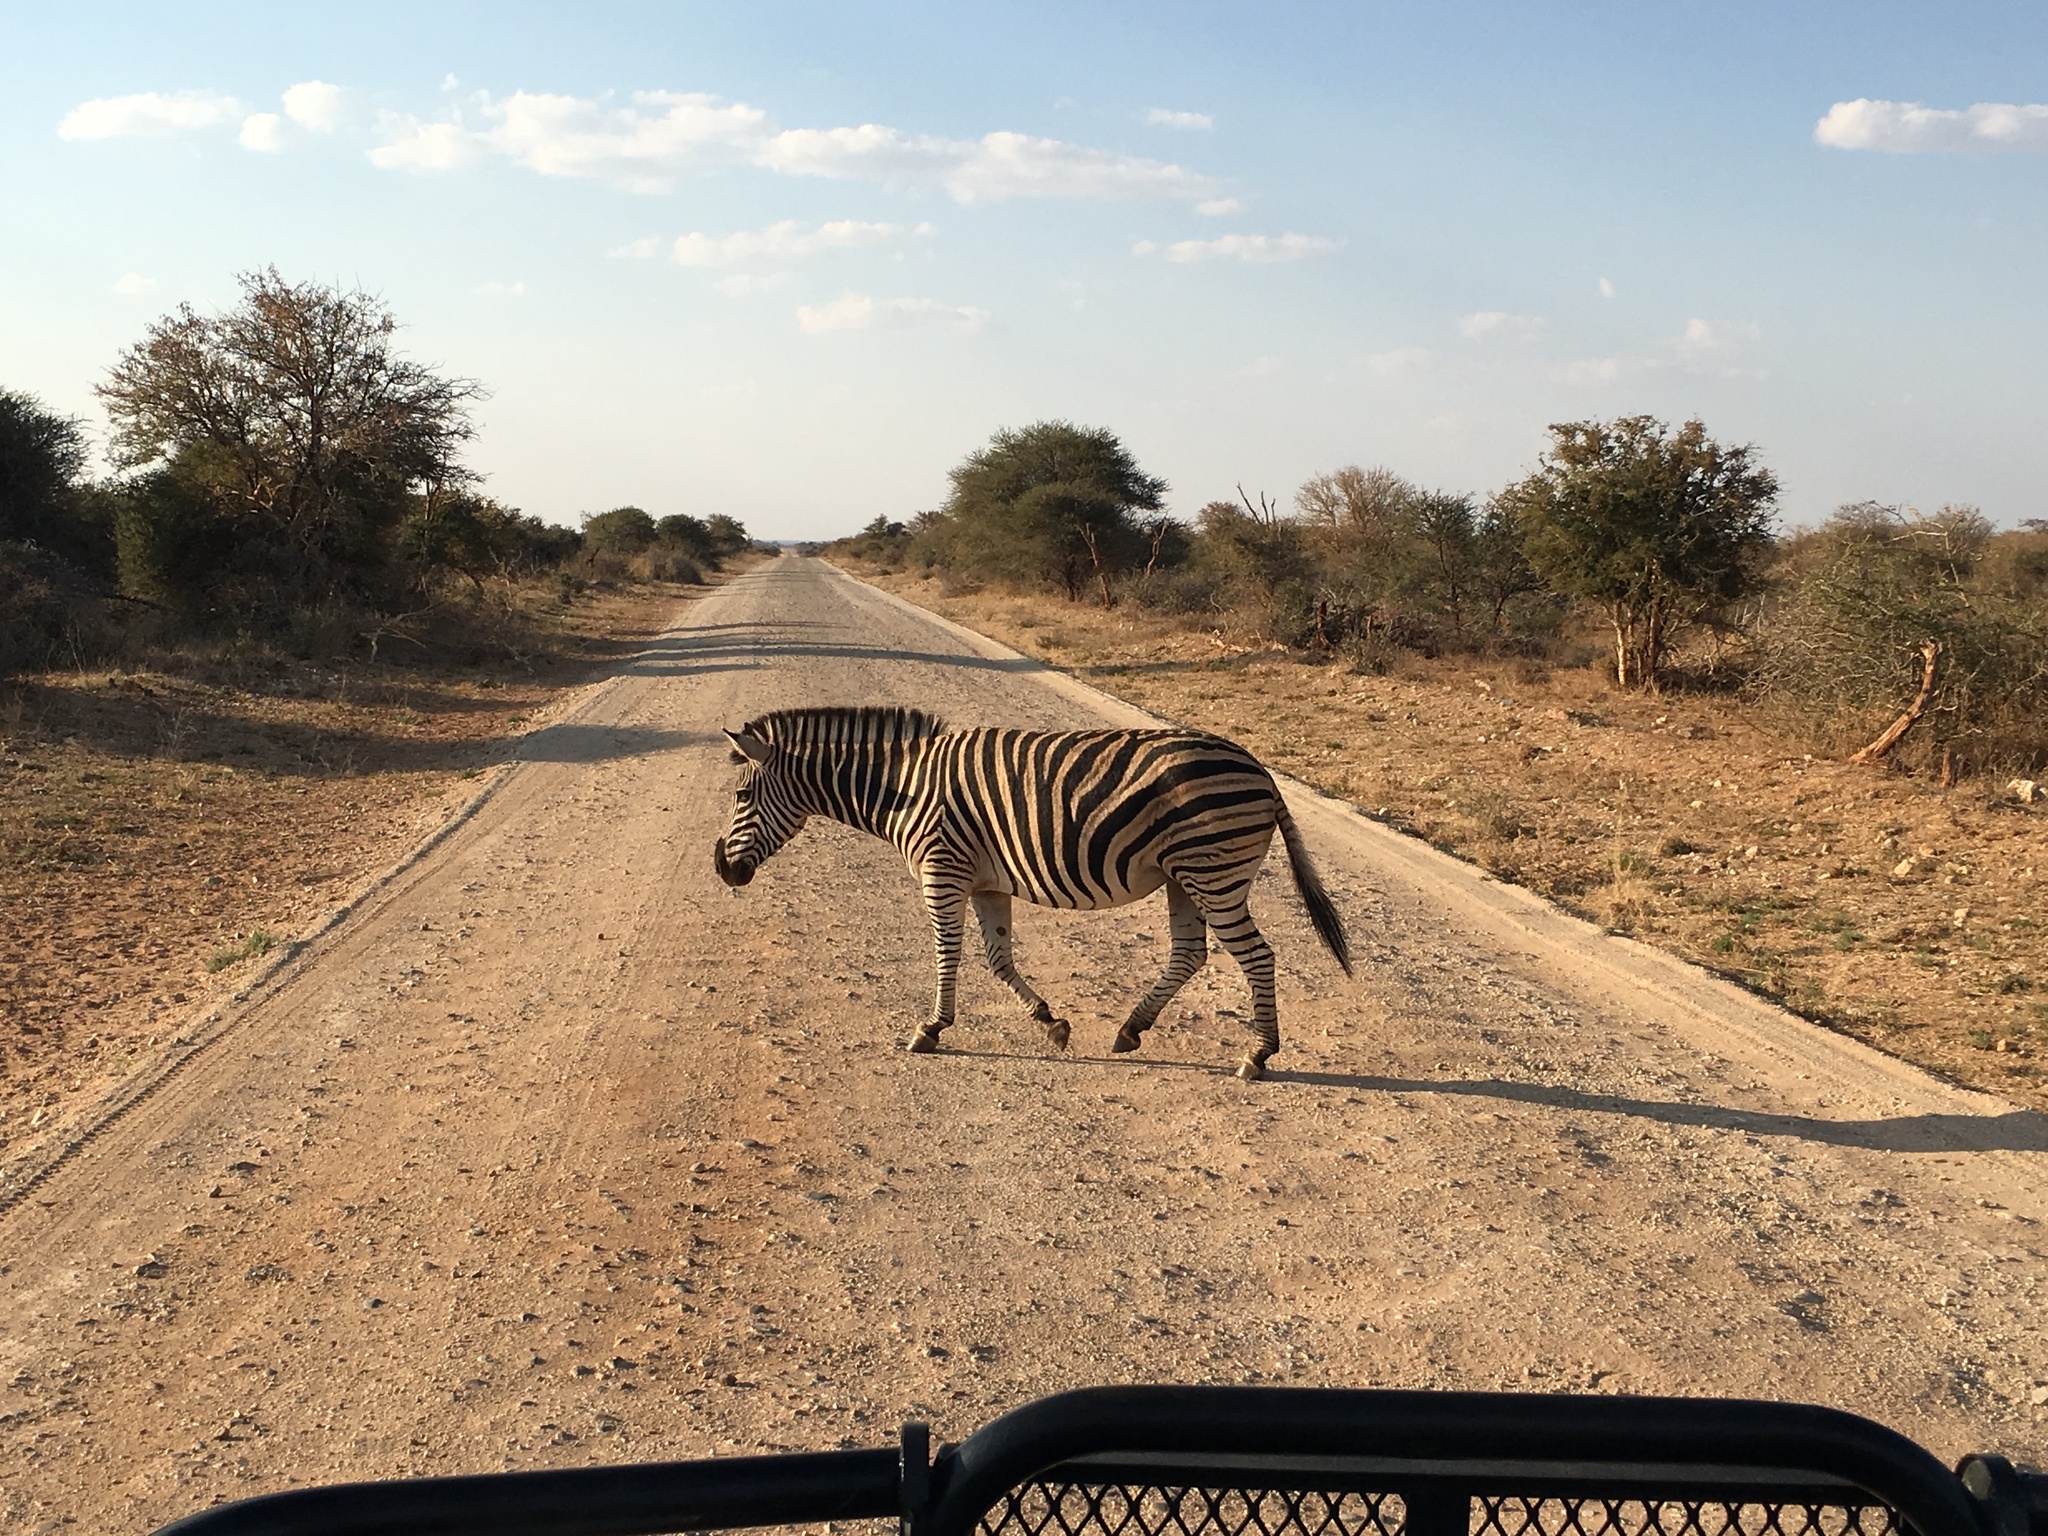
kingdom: Animalia
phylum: Chordata
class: Mammalia
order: Perissodactyla
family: Equidae
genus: Equus
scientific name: Equus quagga
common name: Plains zebra
